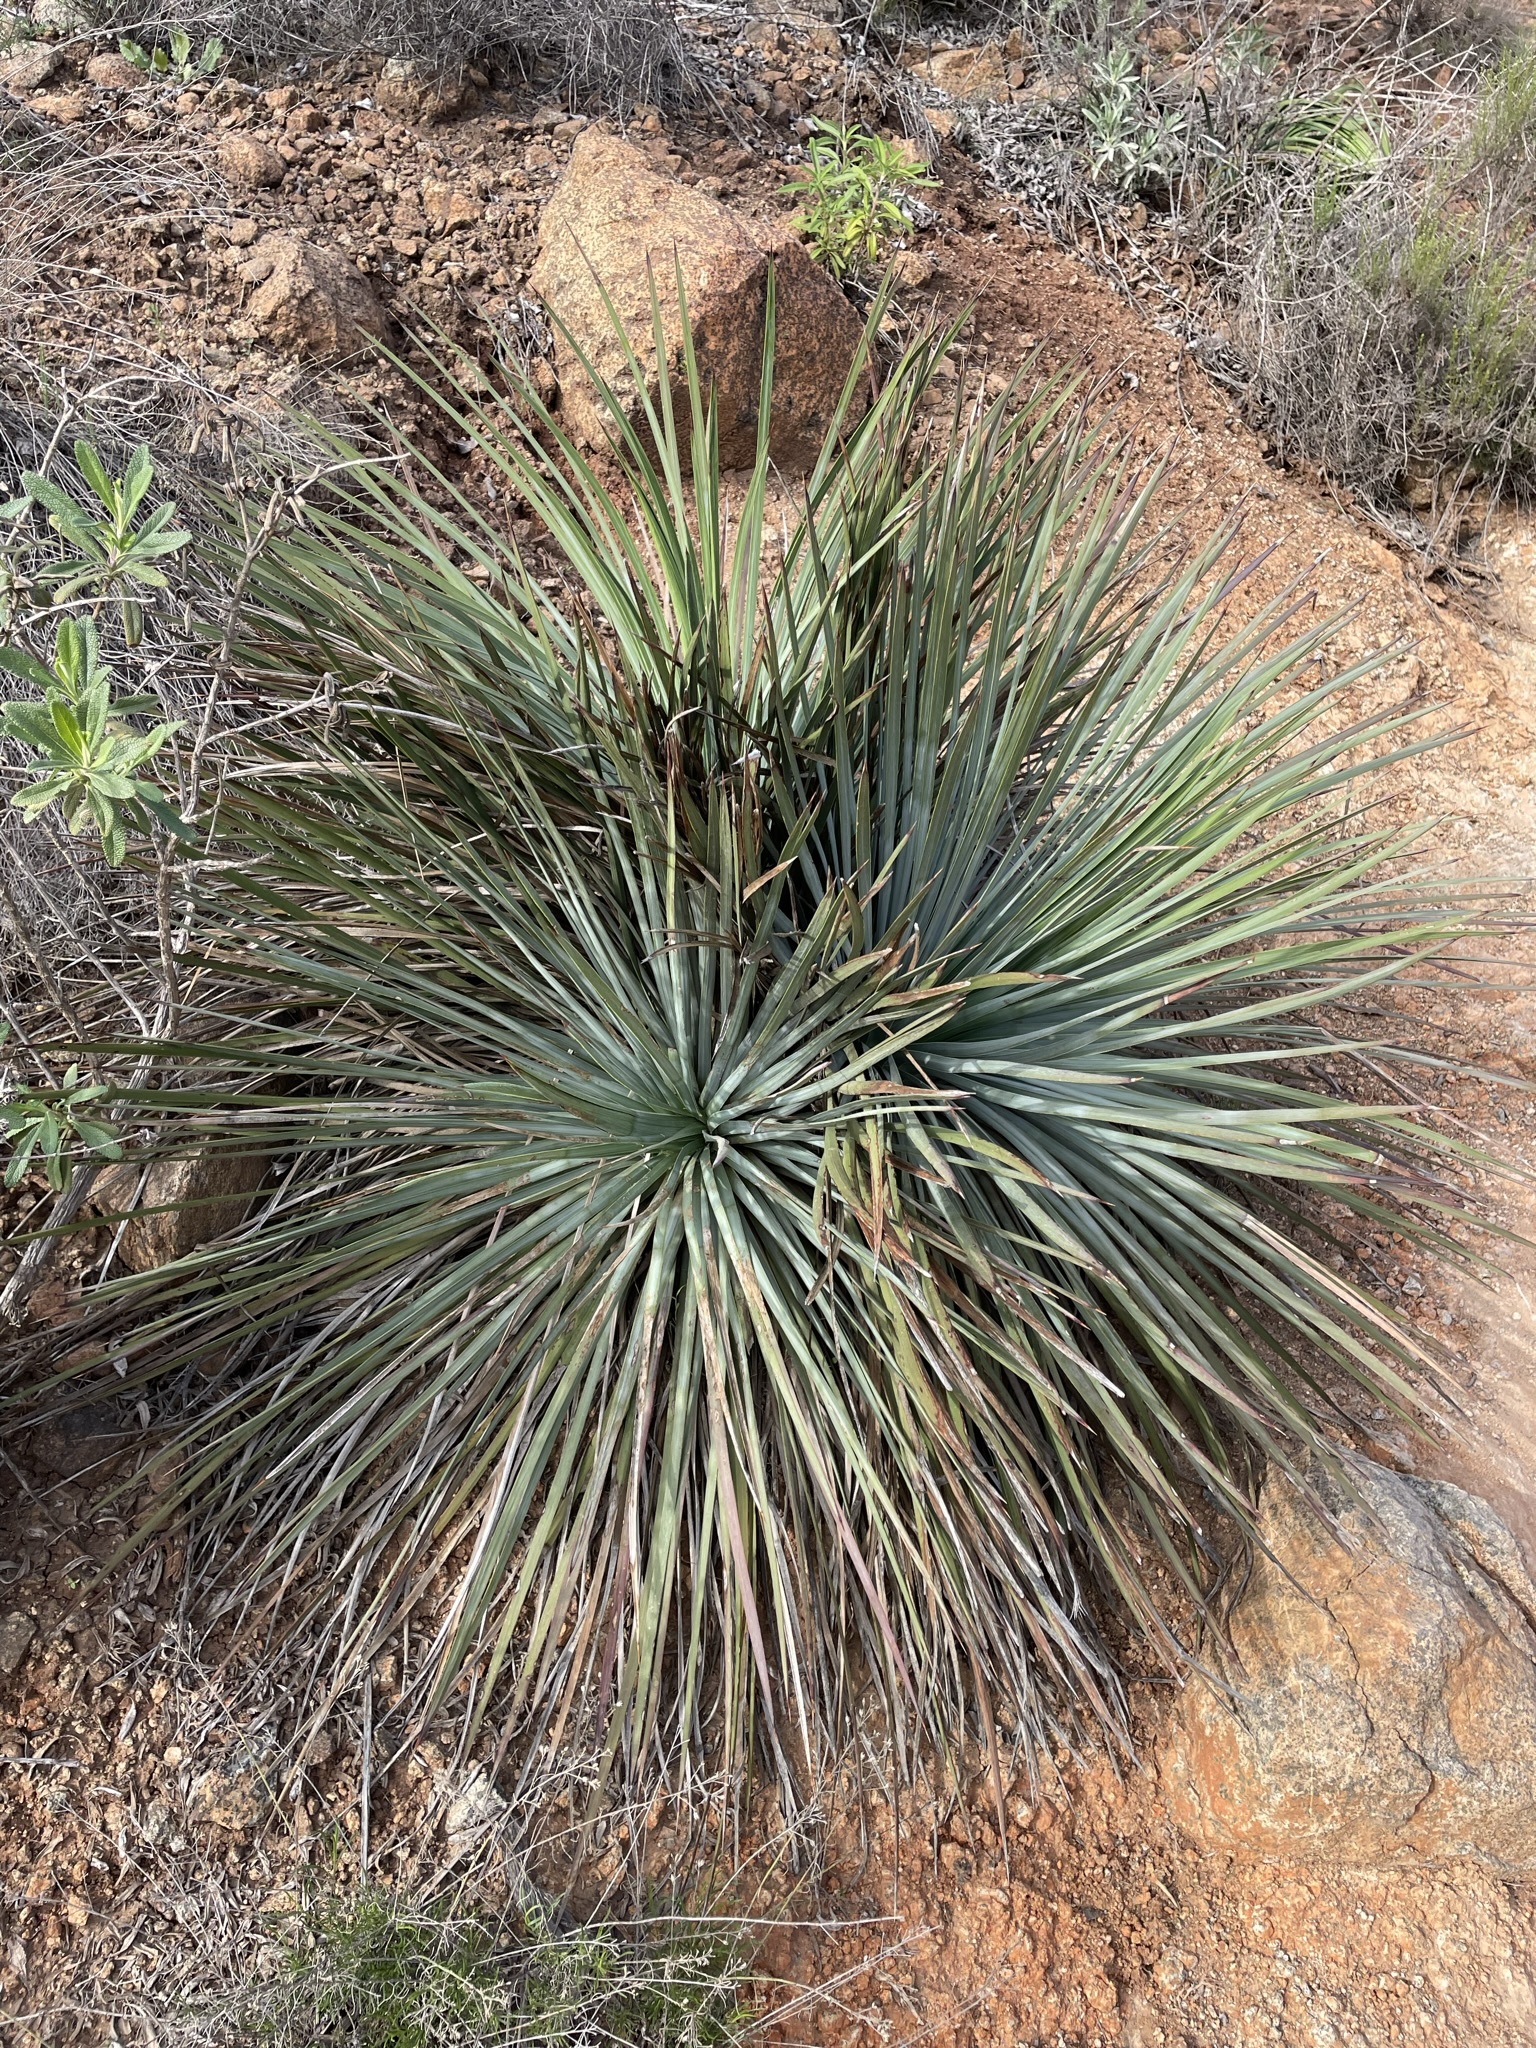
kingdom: Plantae
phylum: Tracheophyta
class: Liliopsida
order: Asparagales
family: Asparagaceae
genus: Hesperoyucca
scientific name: Hesperoyucca whipplei
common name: Our lord's-candle
